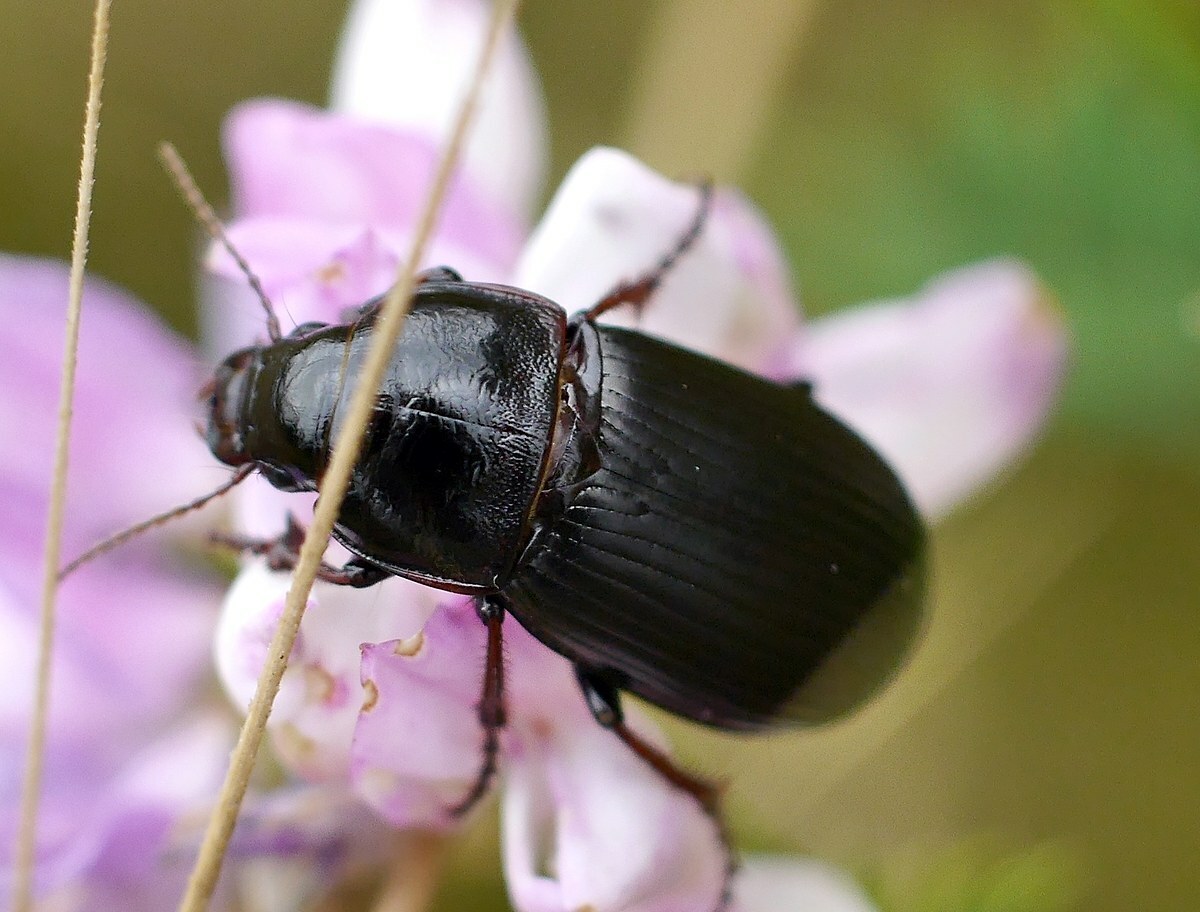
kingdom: Animalia
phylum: Arthropoda
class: Insecta
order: Coleoptera
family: Carabidae
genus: Zabrus
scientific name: Zabrus tenebrioides
